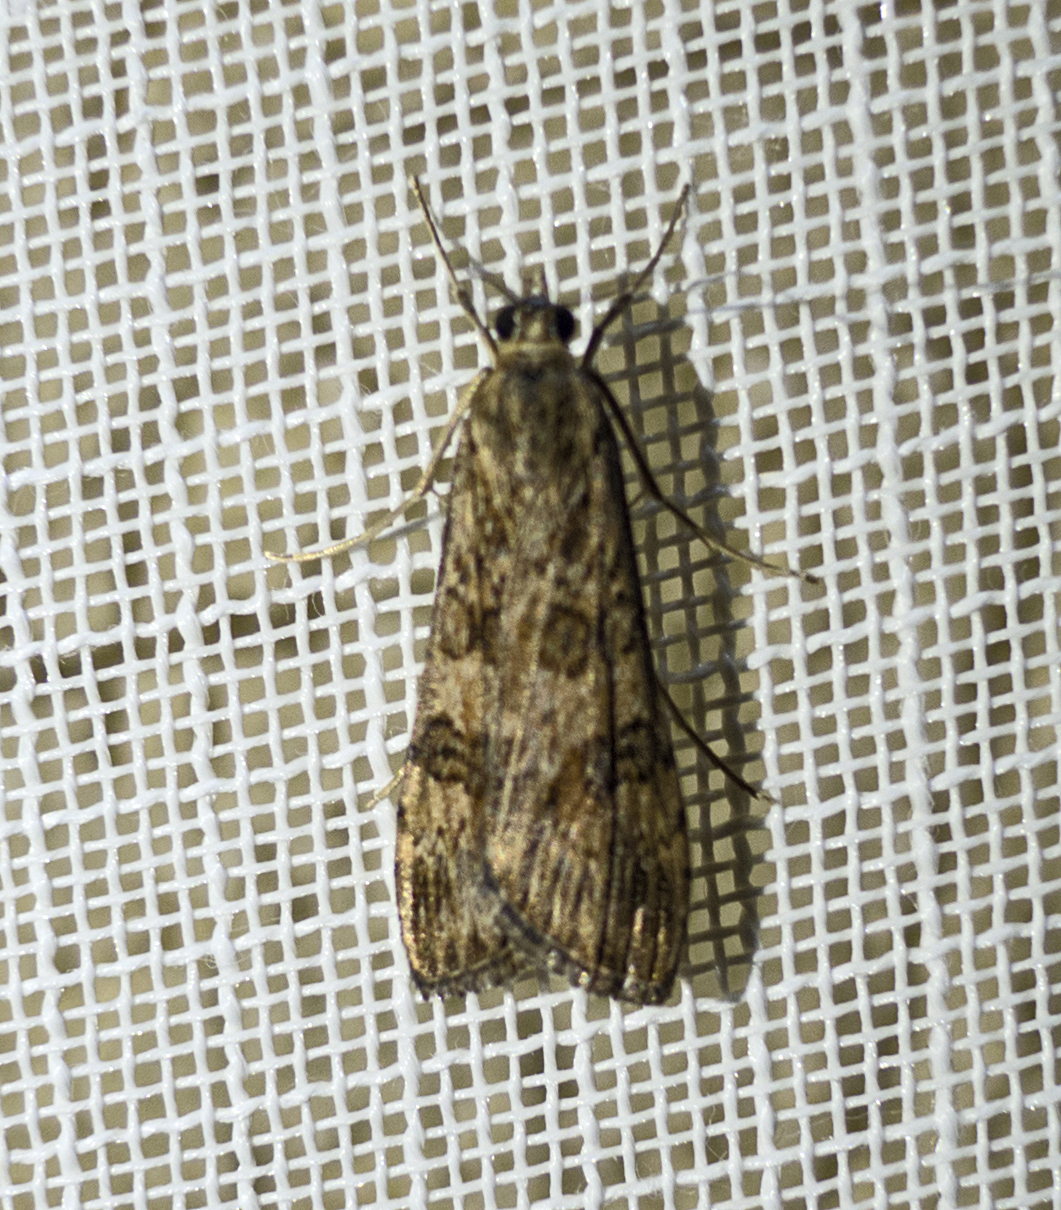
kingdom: Animalia
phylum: Arthropoda
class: Insecta
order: Lepidoptera
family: Crambidae
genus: Nomophila
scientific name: Nomophila noctuella
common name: Rush veneer
